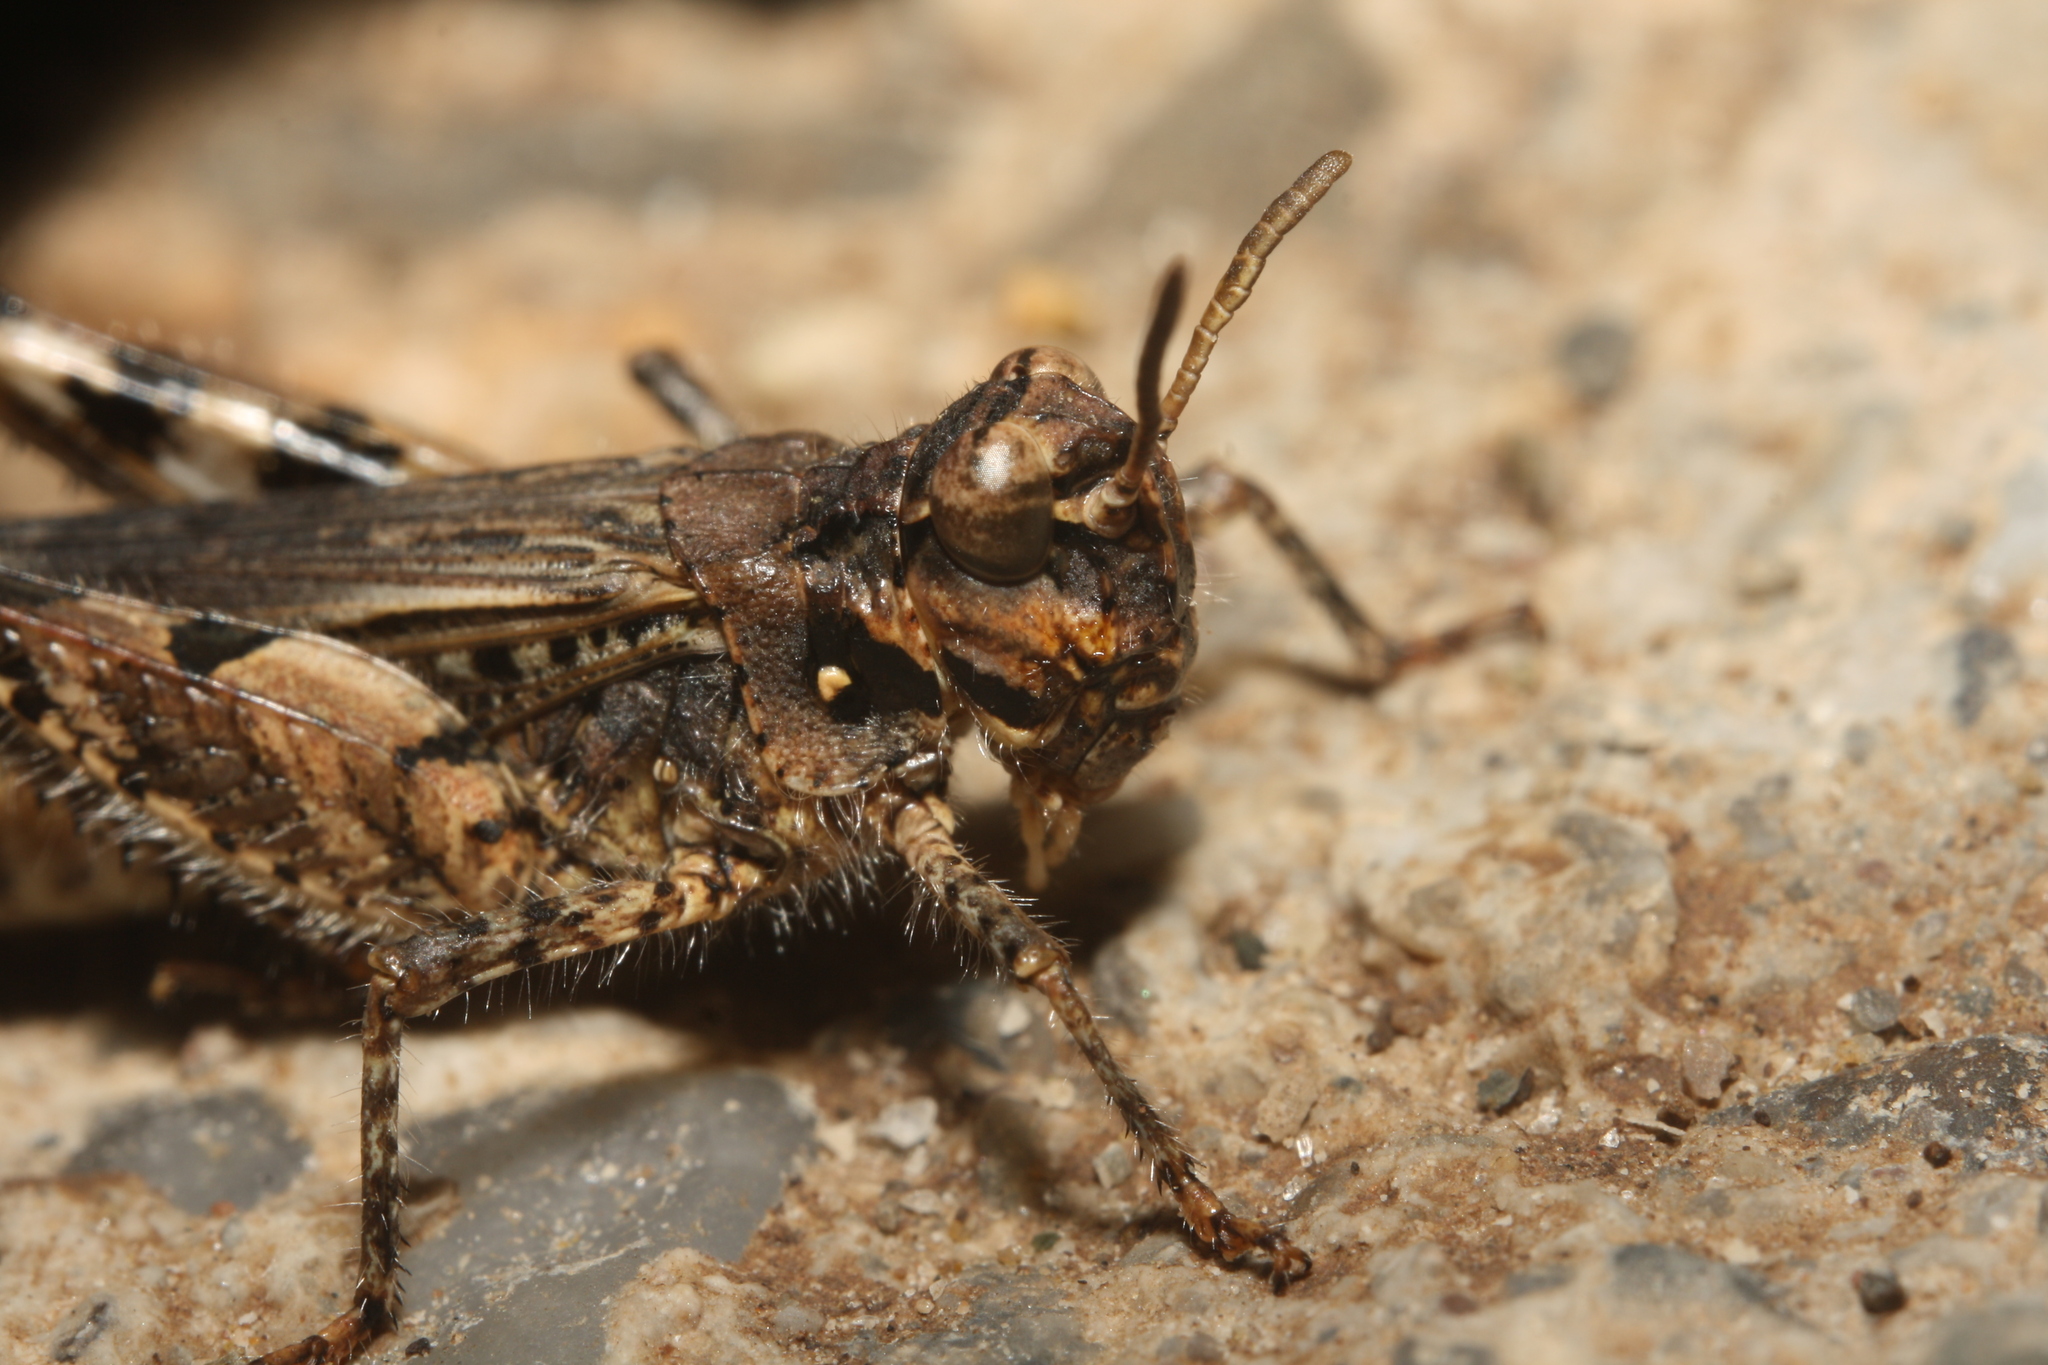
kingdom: Animalia
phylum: Arthropoda
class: Insecta
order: Orthoptera
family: Acrididae
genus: Acrotylus
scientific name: Acrotylus insubricus
